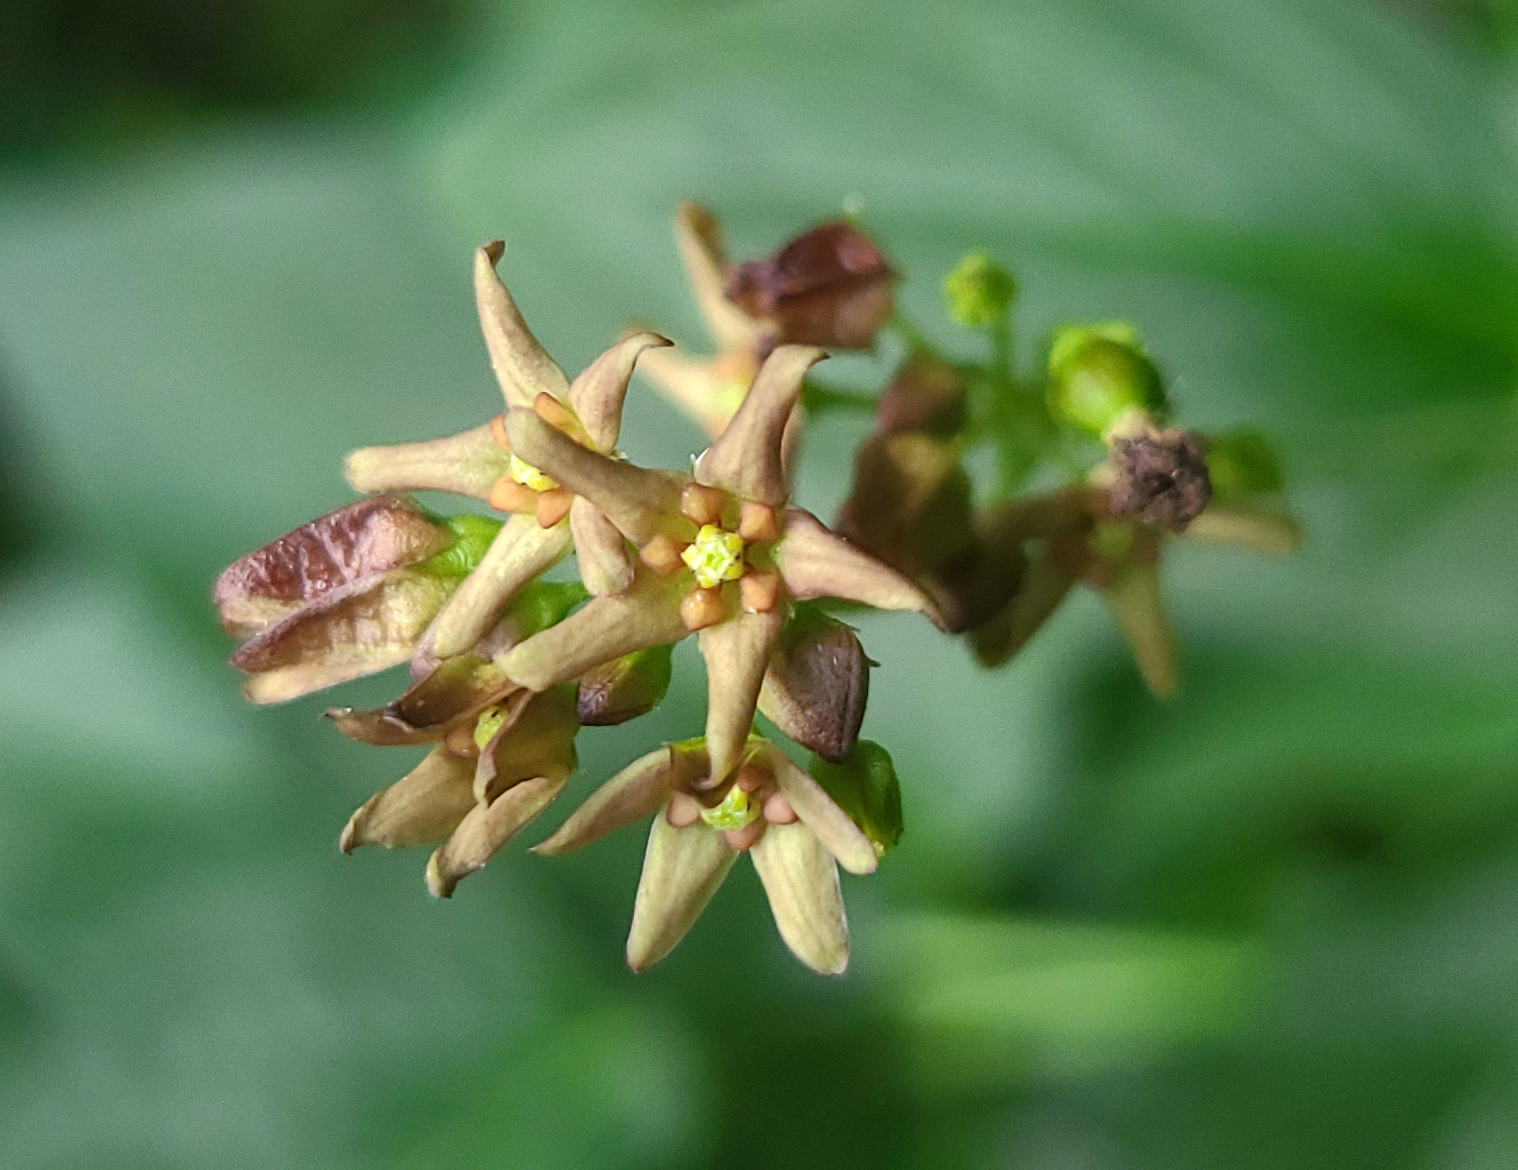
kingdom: Plantae
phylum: Tracheophyta
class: Magnoliopsida
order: Gentianales
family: Apocynaceae
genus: Vincetoxicum
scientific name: Vincetoxicum rossicum
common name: Dog-strangling vine
